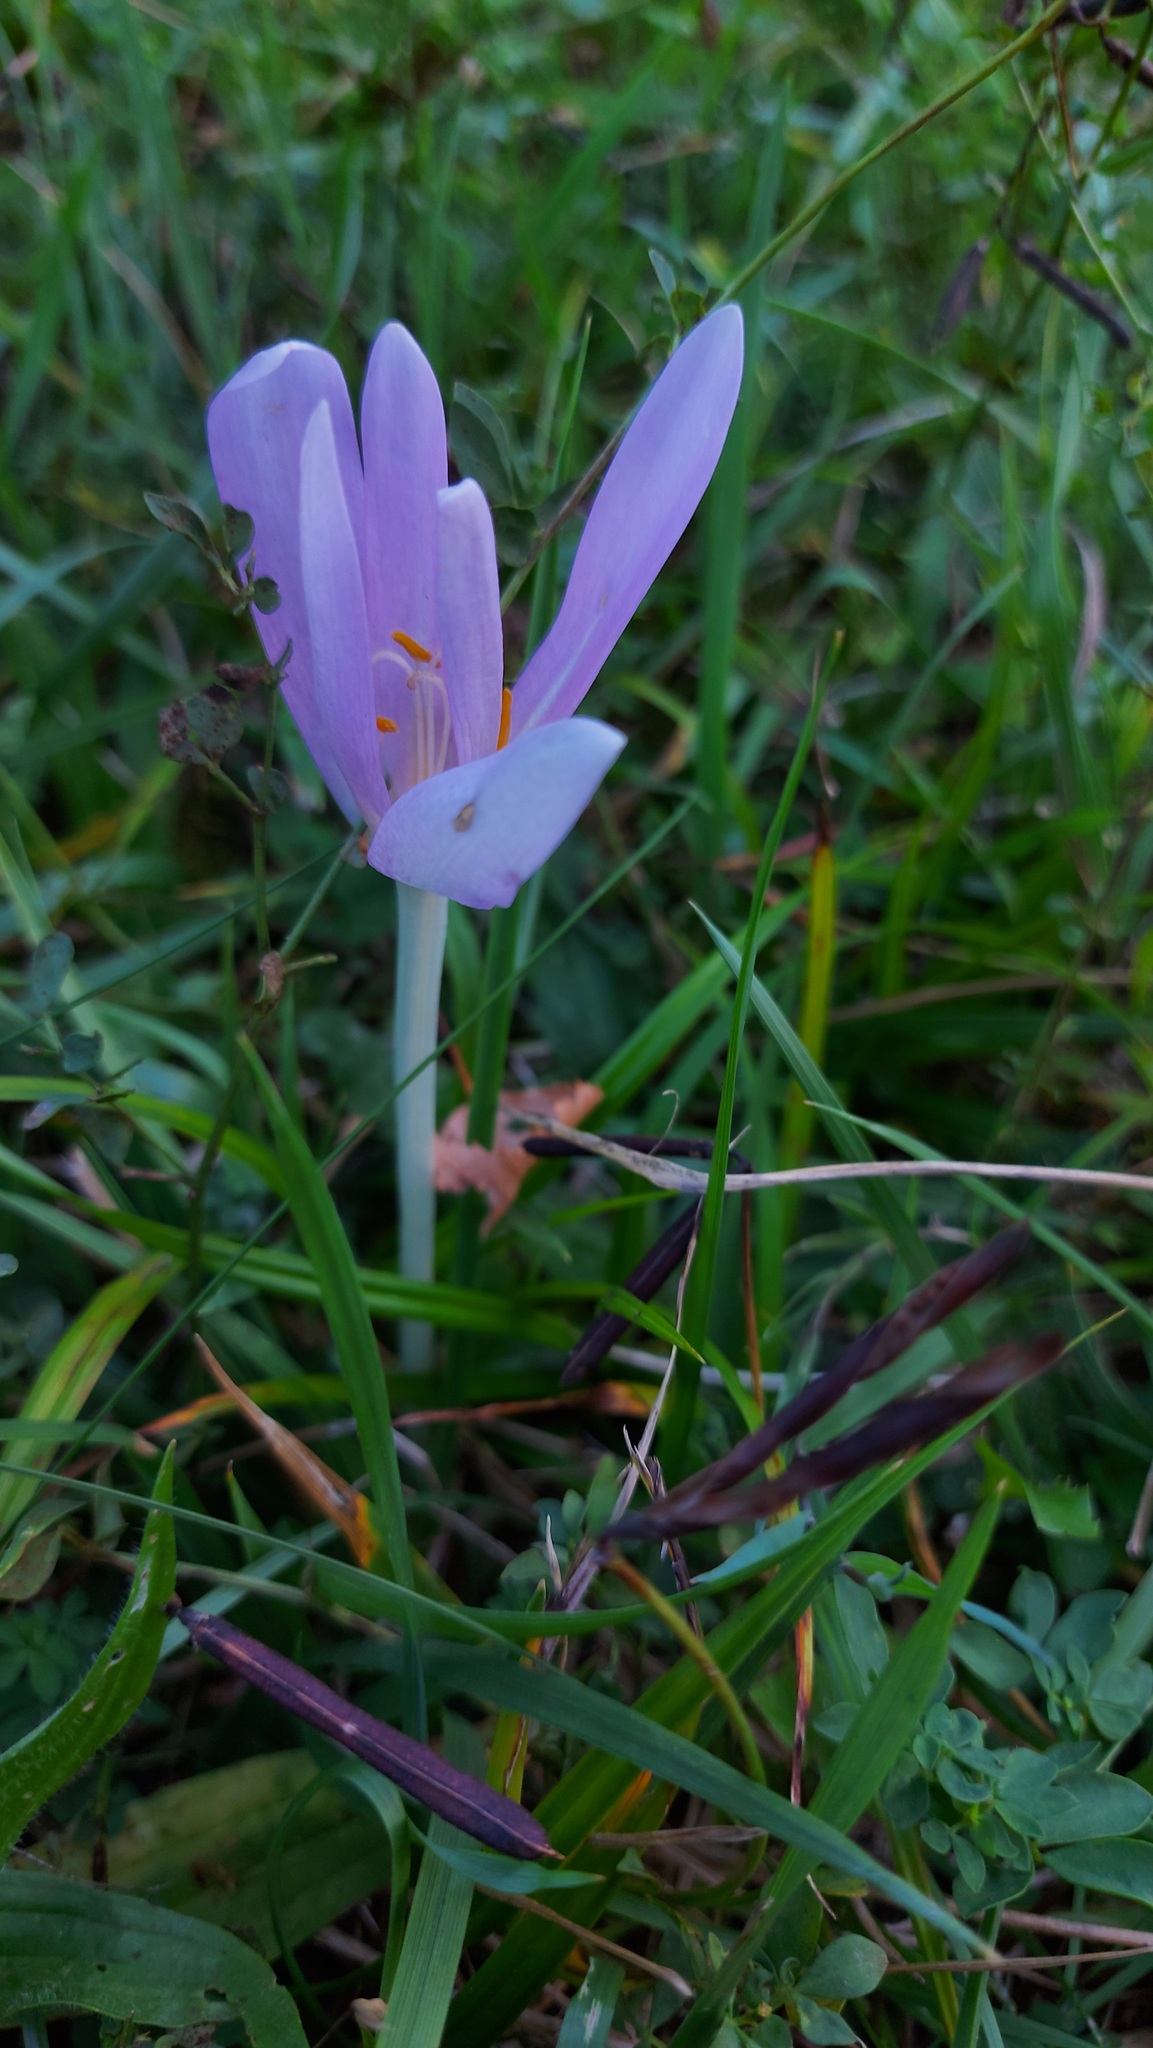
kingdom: Plantae
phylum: Tracheophyta
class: Liliopsida
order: Liliales
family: Colchicaceae
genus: Colchicum
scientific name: Colchicum autumnale
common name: Autumn crocus
